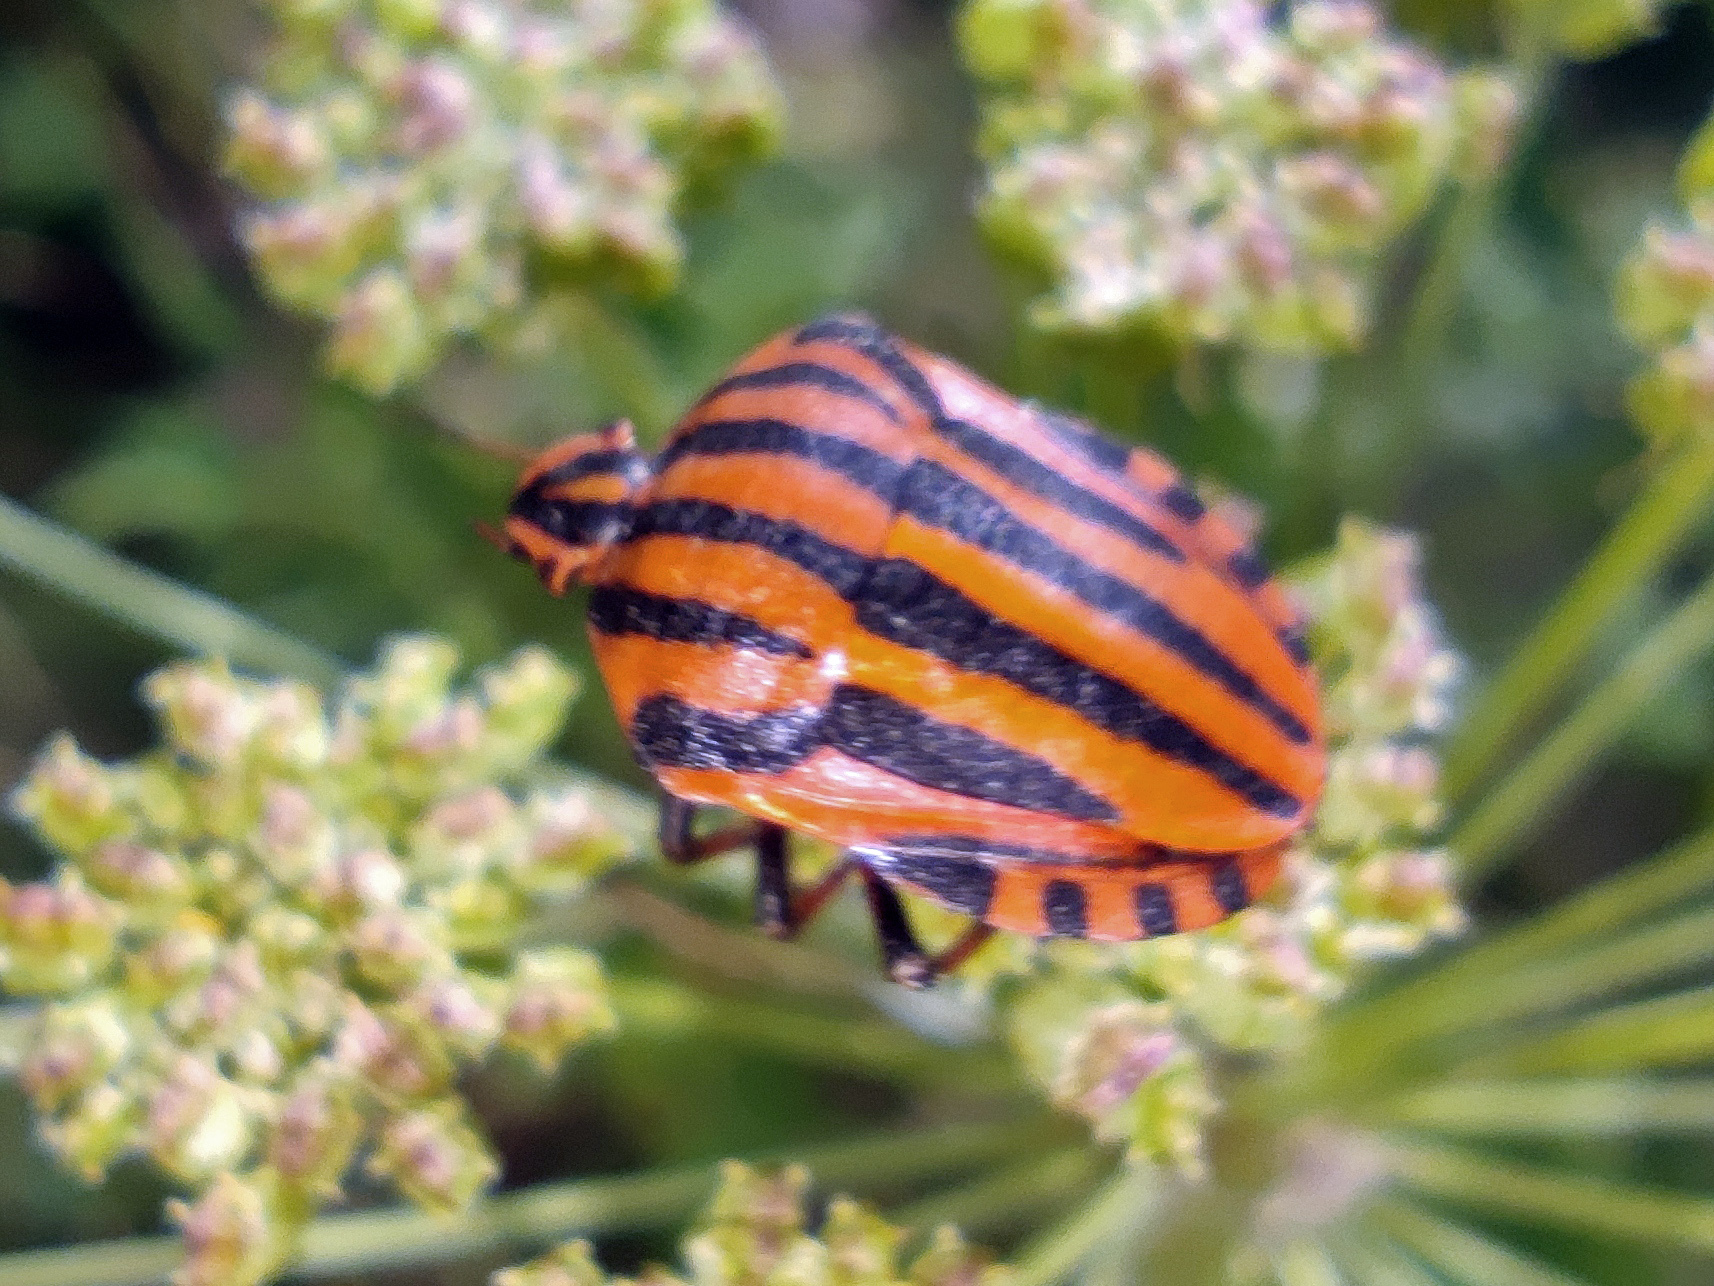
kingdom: Animalia
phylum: Arthropoda
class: Insecta
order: Hemiptera
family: Pentatomidae
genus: Graphosoma
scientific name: Graphosoma italicum
